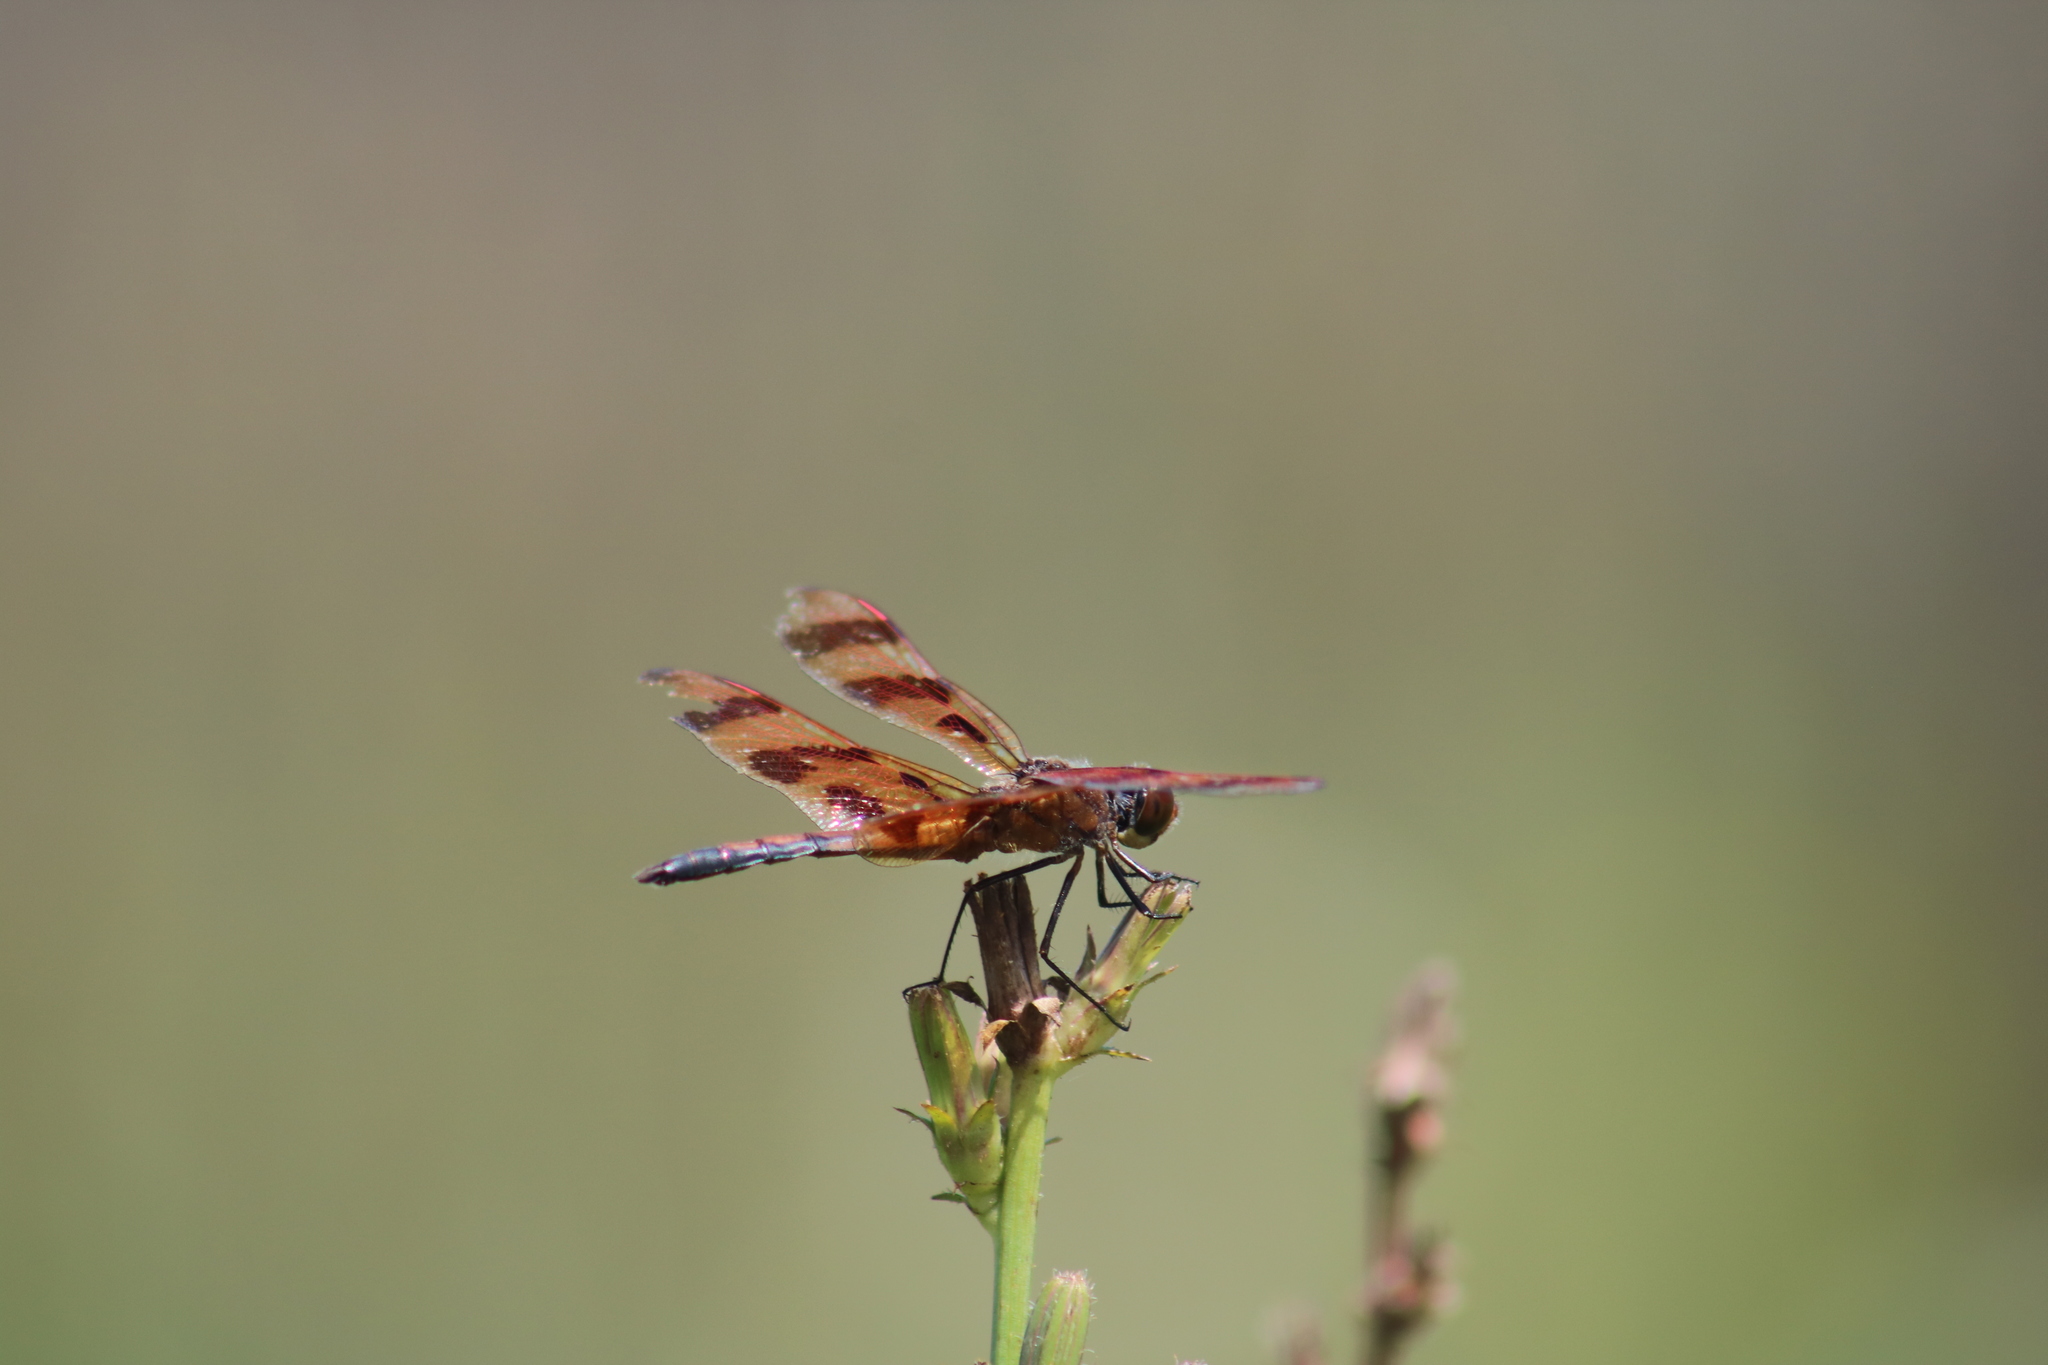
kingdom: Animalia
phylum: Arthropoda
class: Insecta
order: Odonata
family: Libellulidae
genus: Celithemis
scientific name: Celithemis eponina
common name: Halloween pennant
